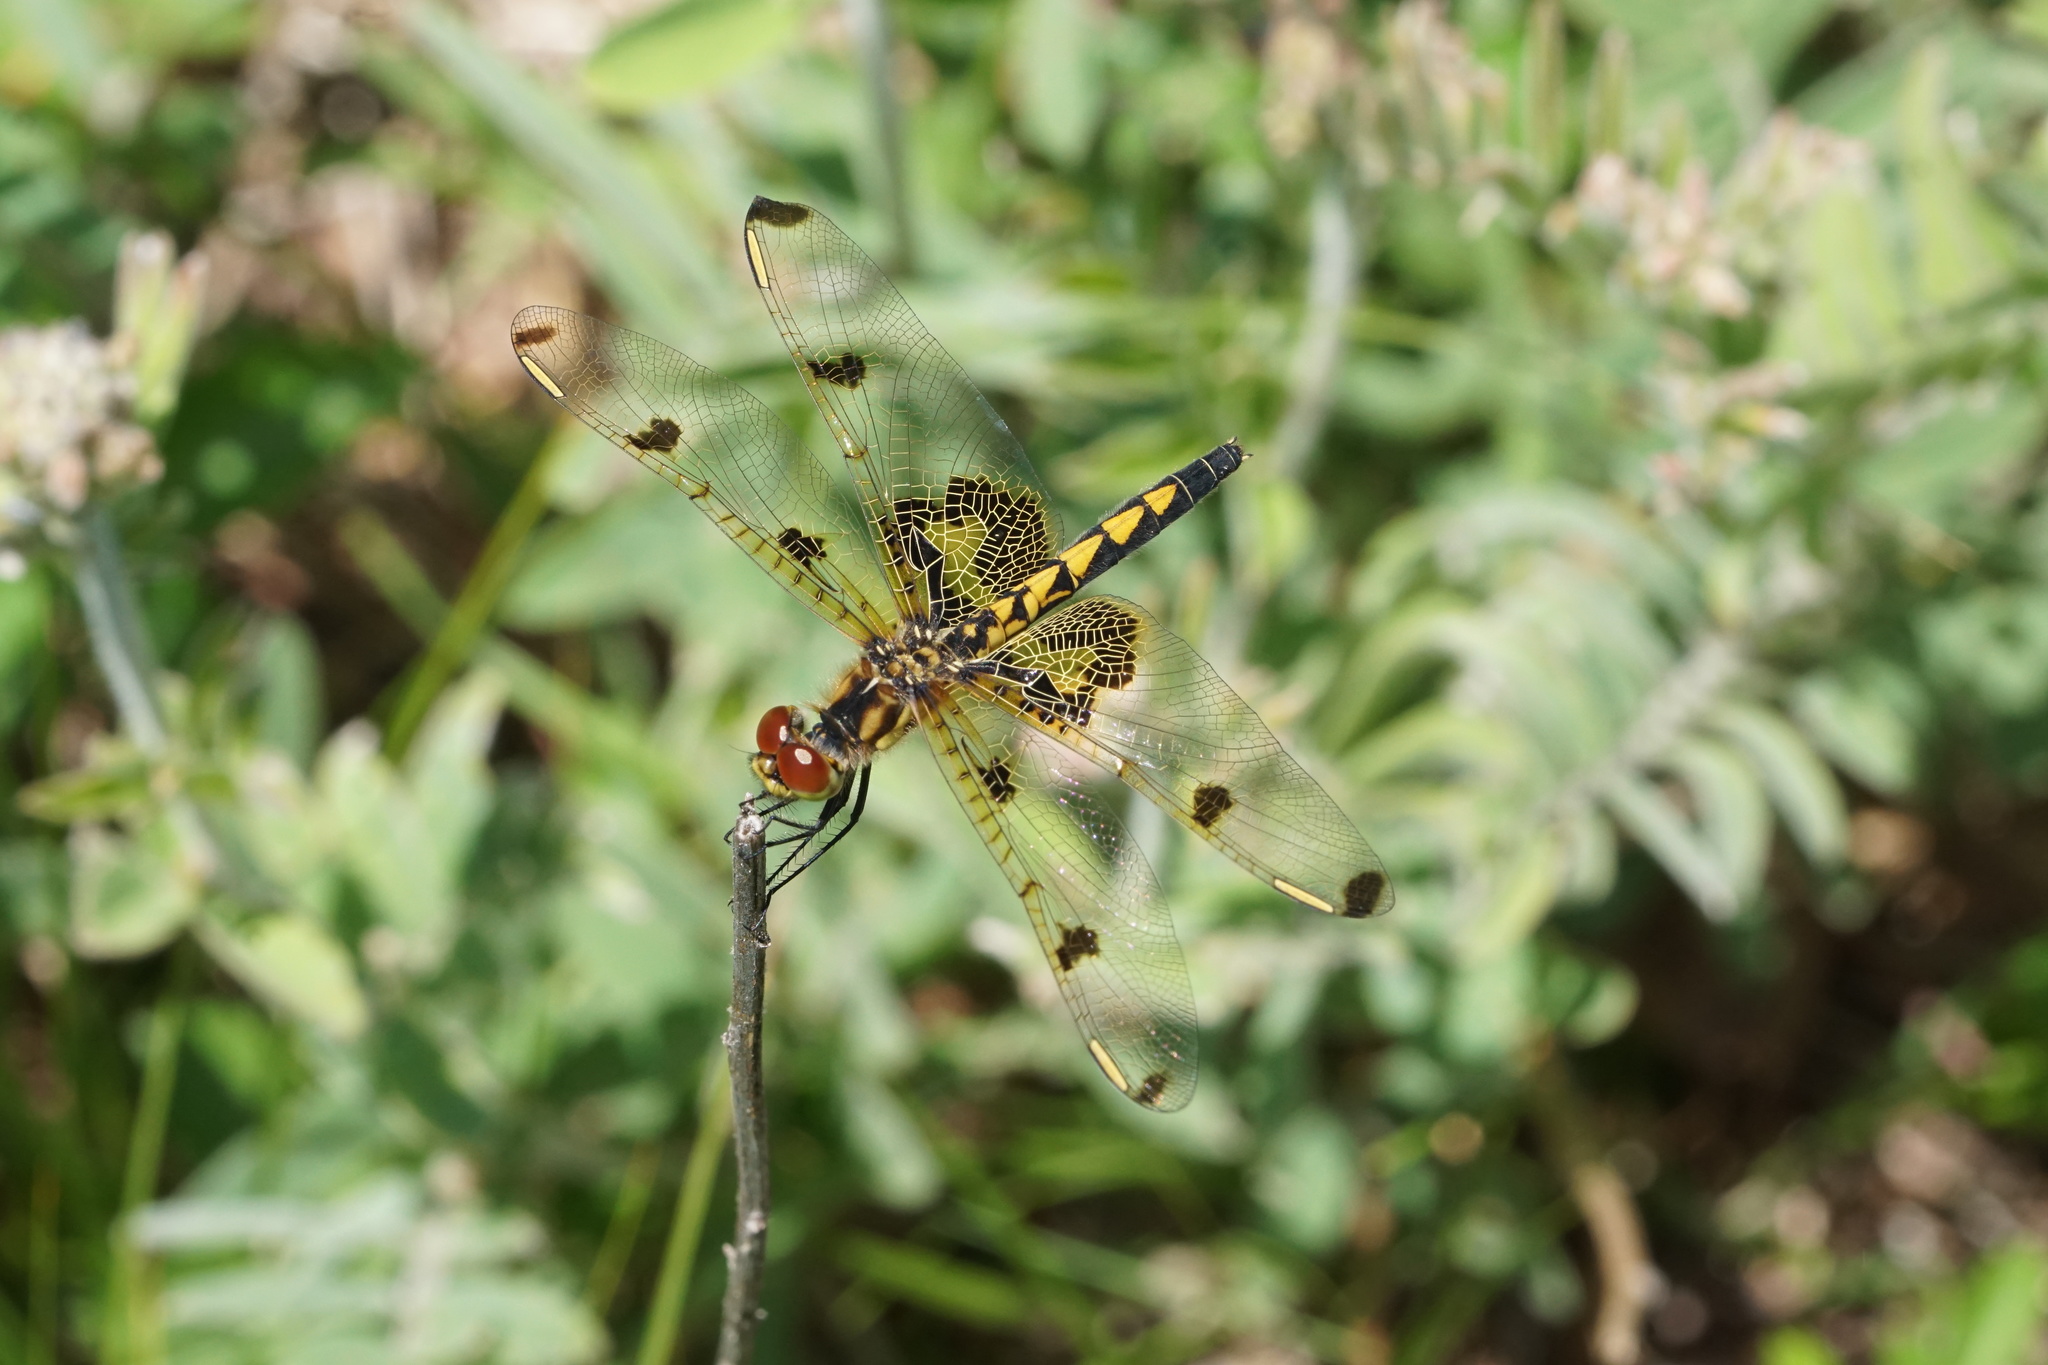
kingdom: Animalia
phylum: Arthropoda
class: Insecta
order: Odonata
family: Libellulidae
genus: Celithemis
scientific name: Celithemis elisa
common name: Calico pennant
